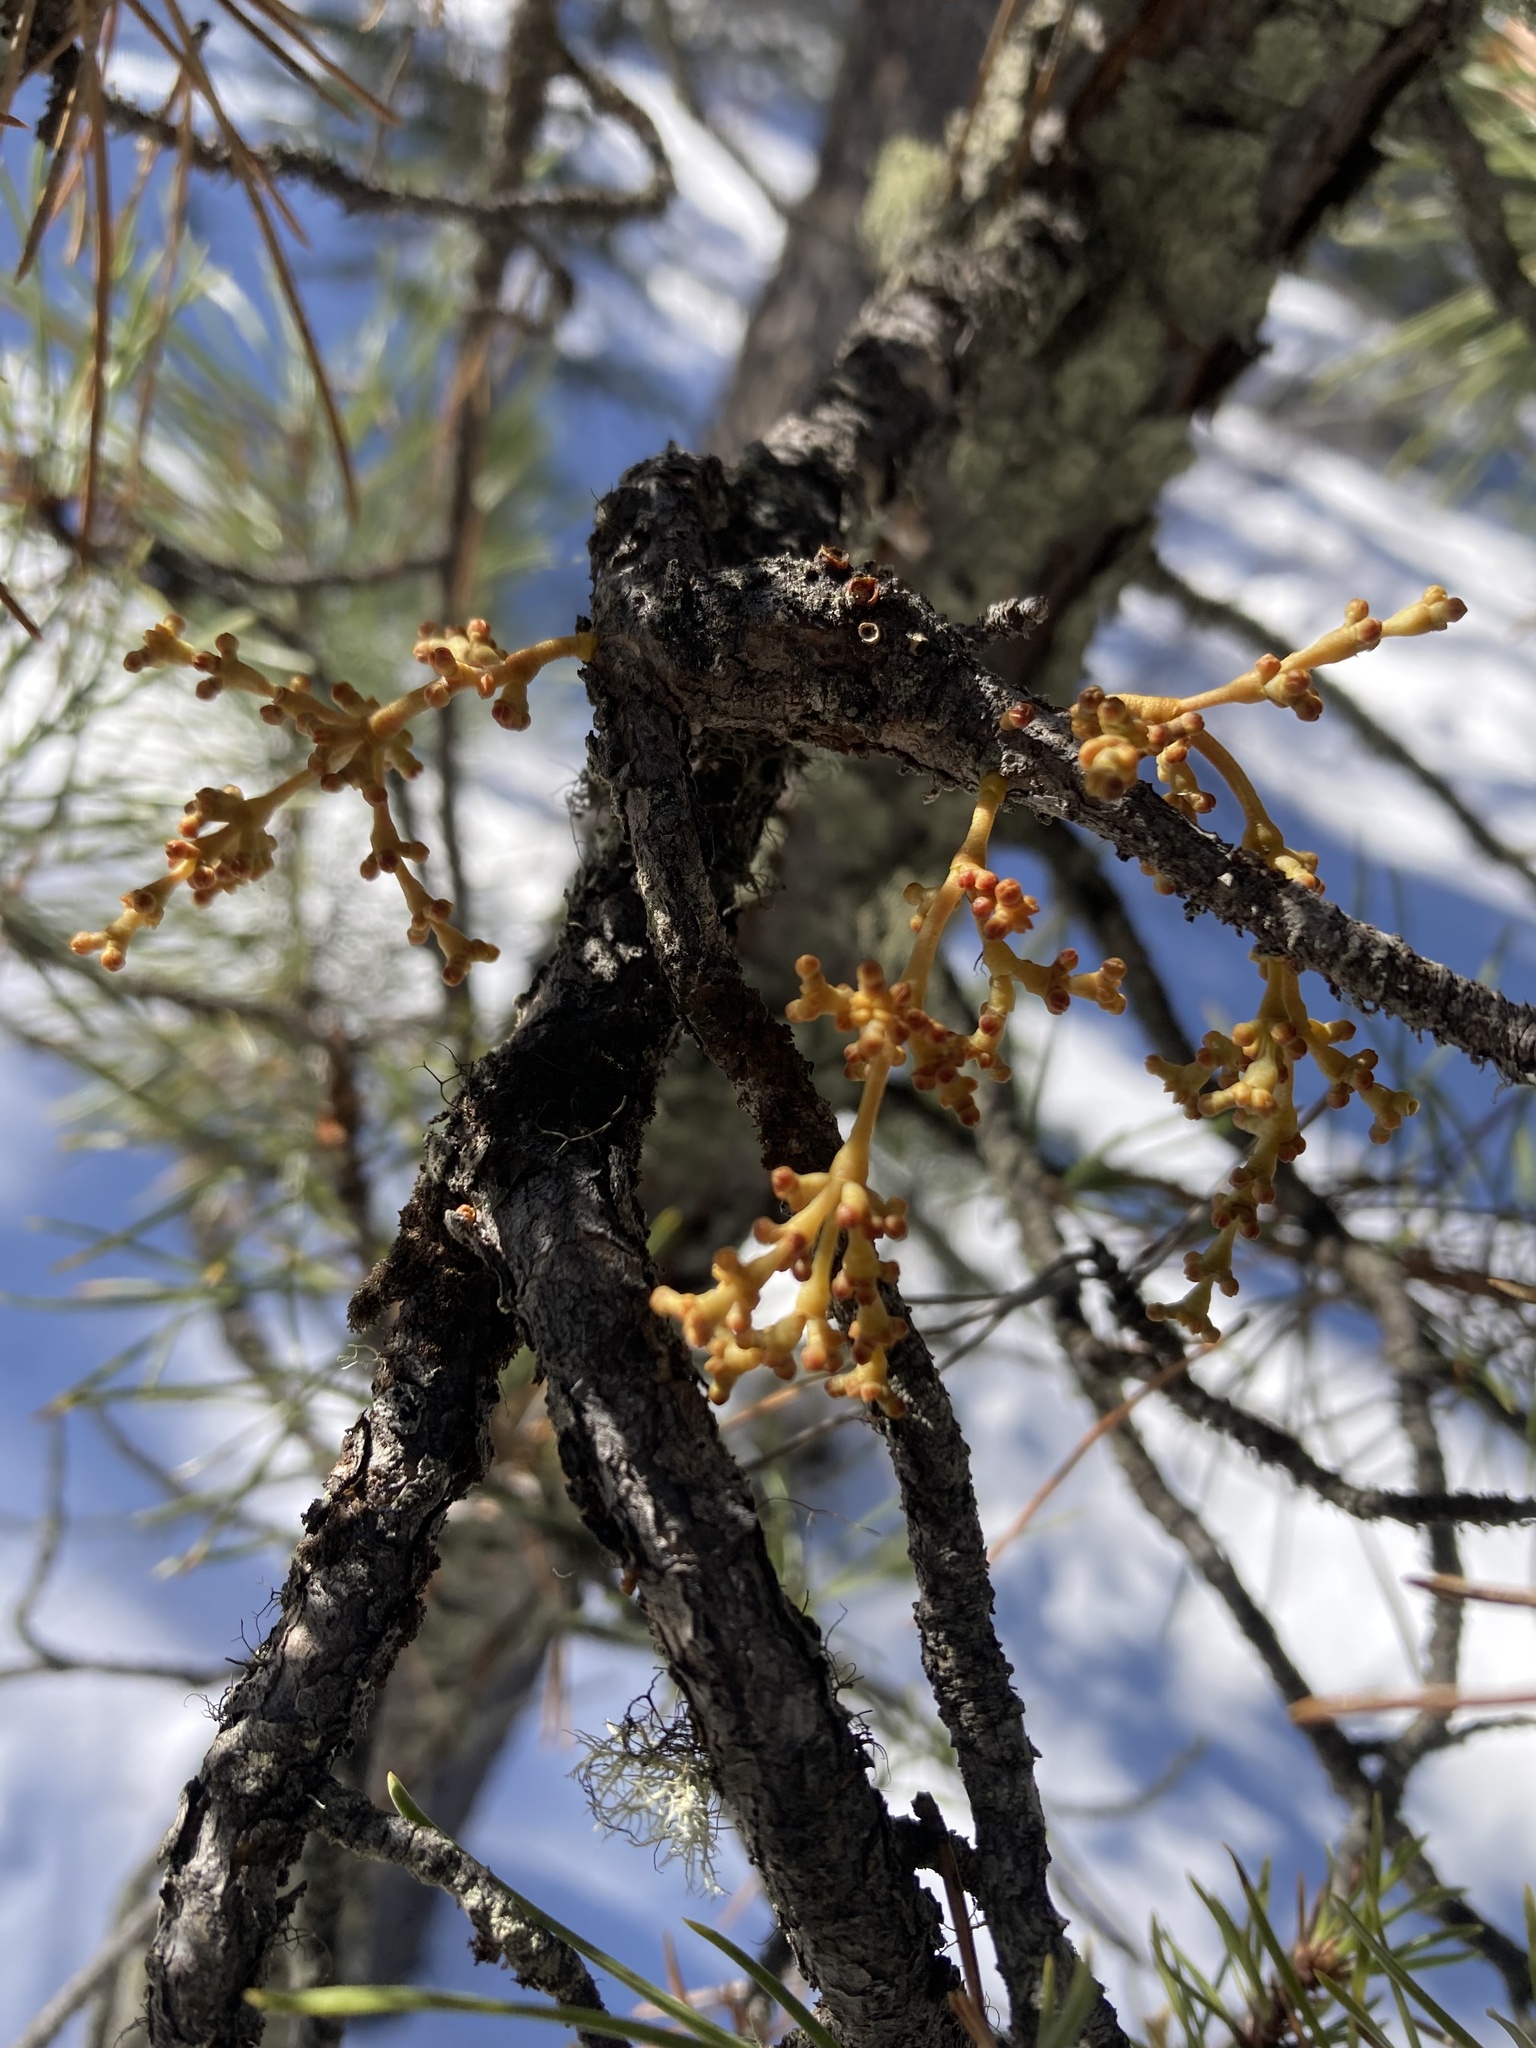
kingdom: Plantae
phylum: Tracheophyta
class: Magnoliopsida
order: Santalales
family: Viscaceae
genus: Arceuthobium
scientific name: Arceuthobium americanum
